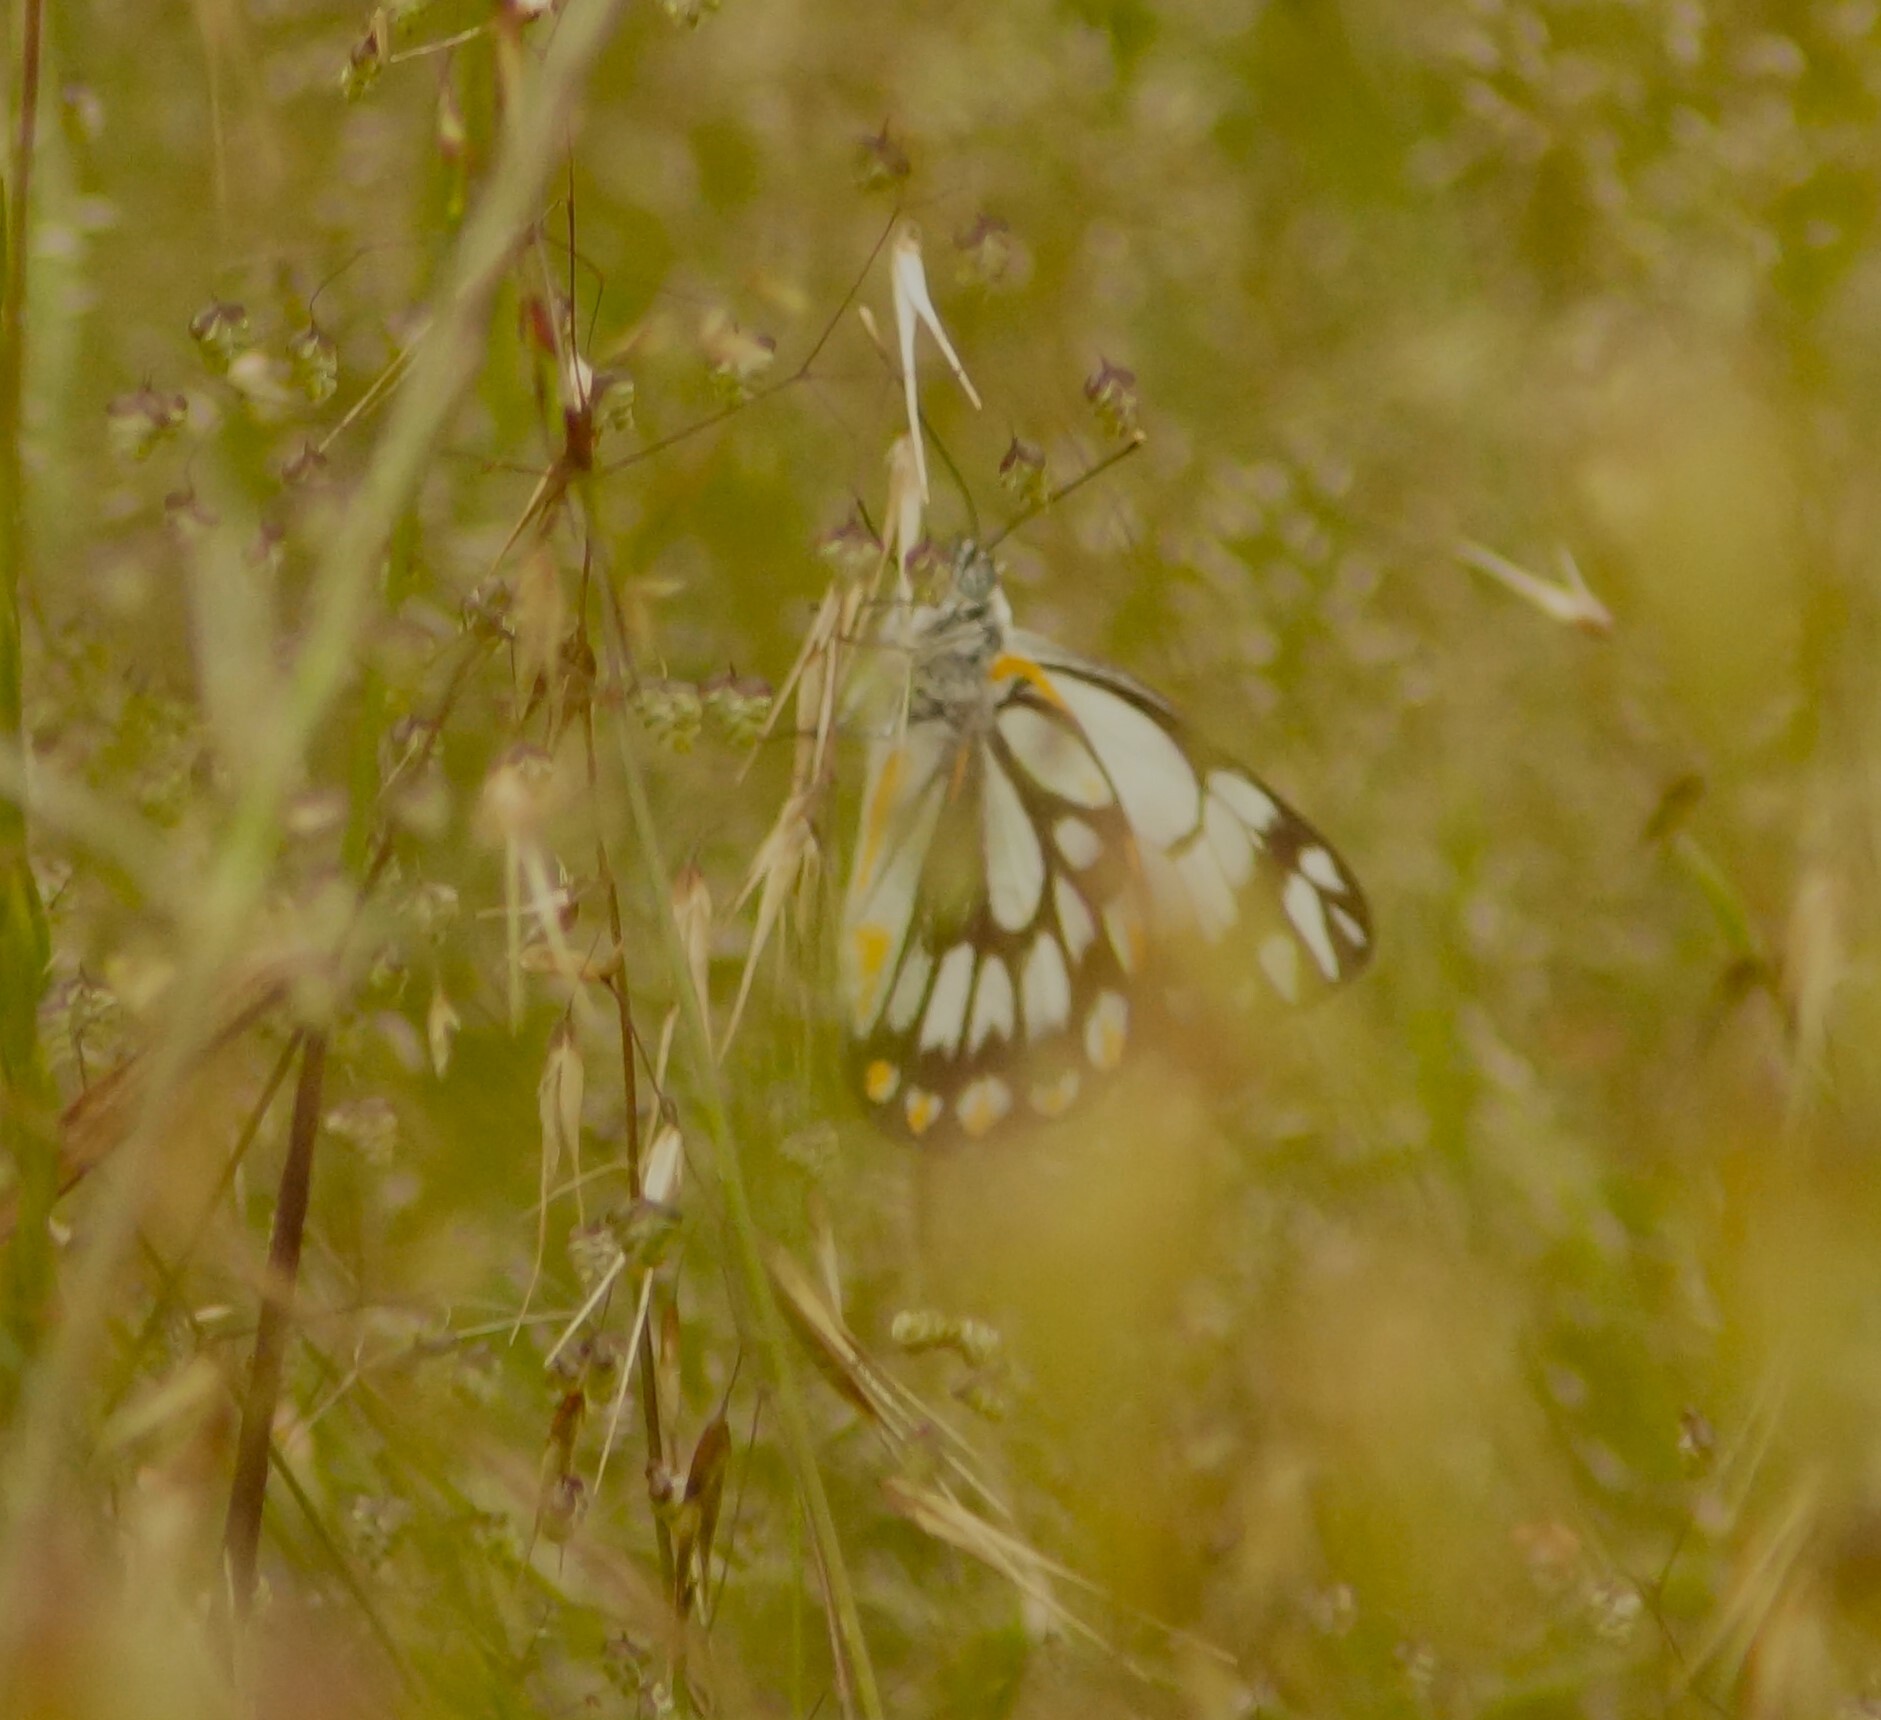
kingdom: Animalia
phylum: Arthropoda
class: Insecta
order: Lepidoptera
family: Pieridae
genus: Belenois
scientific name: Belenois java
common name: Caper white
